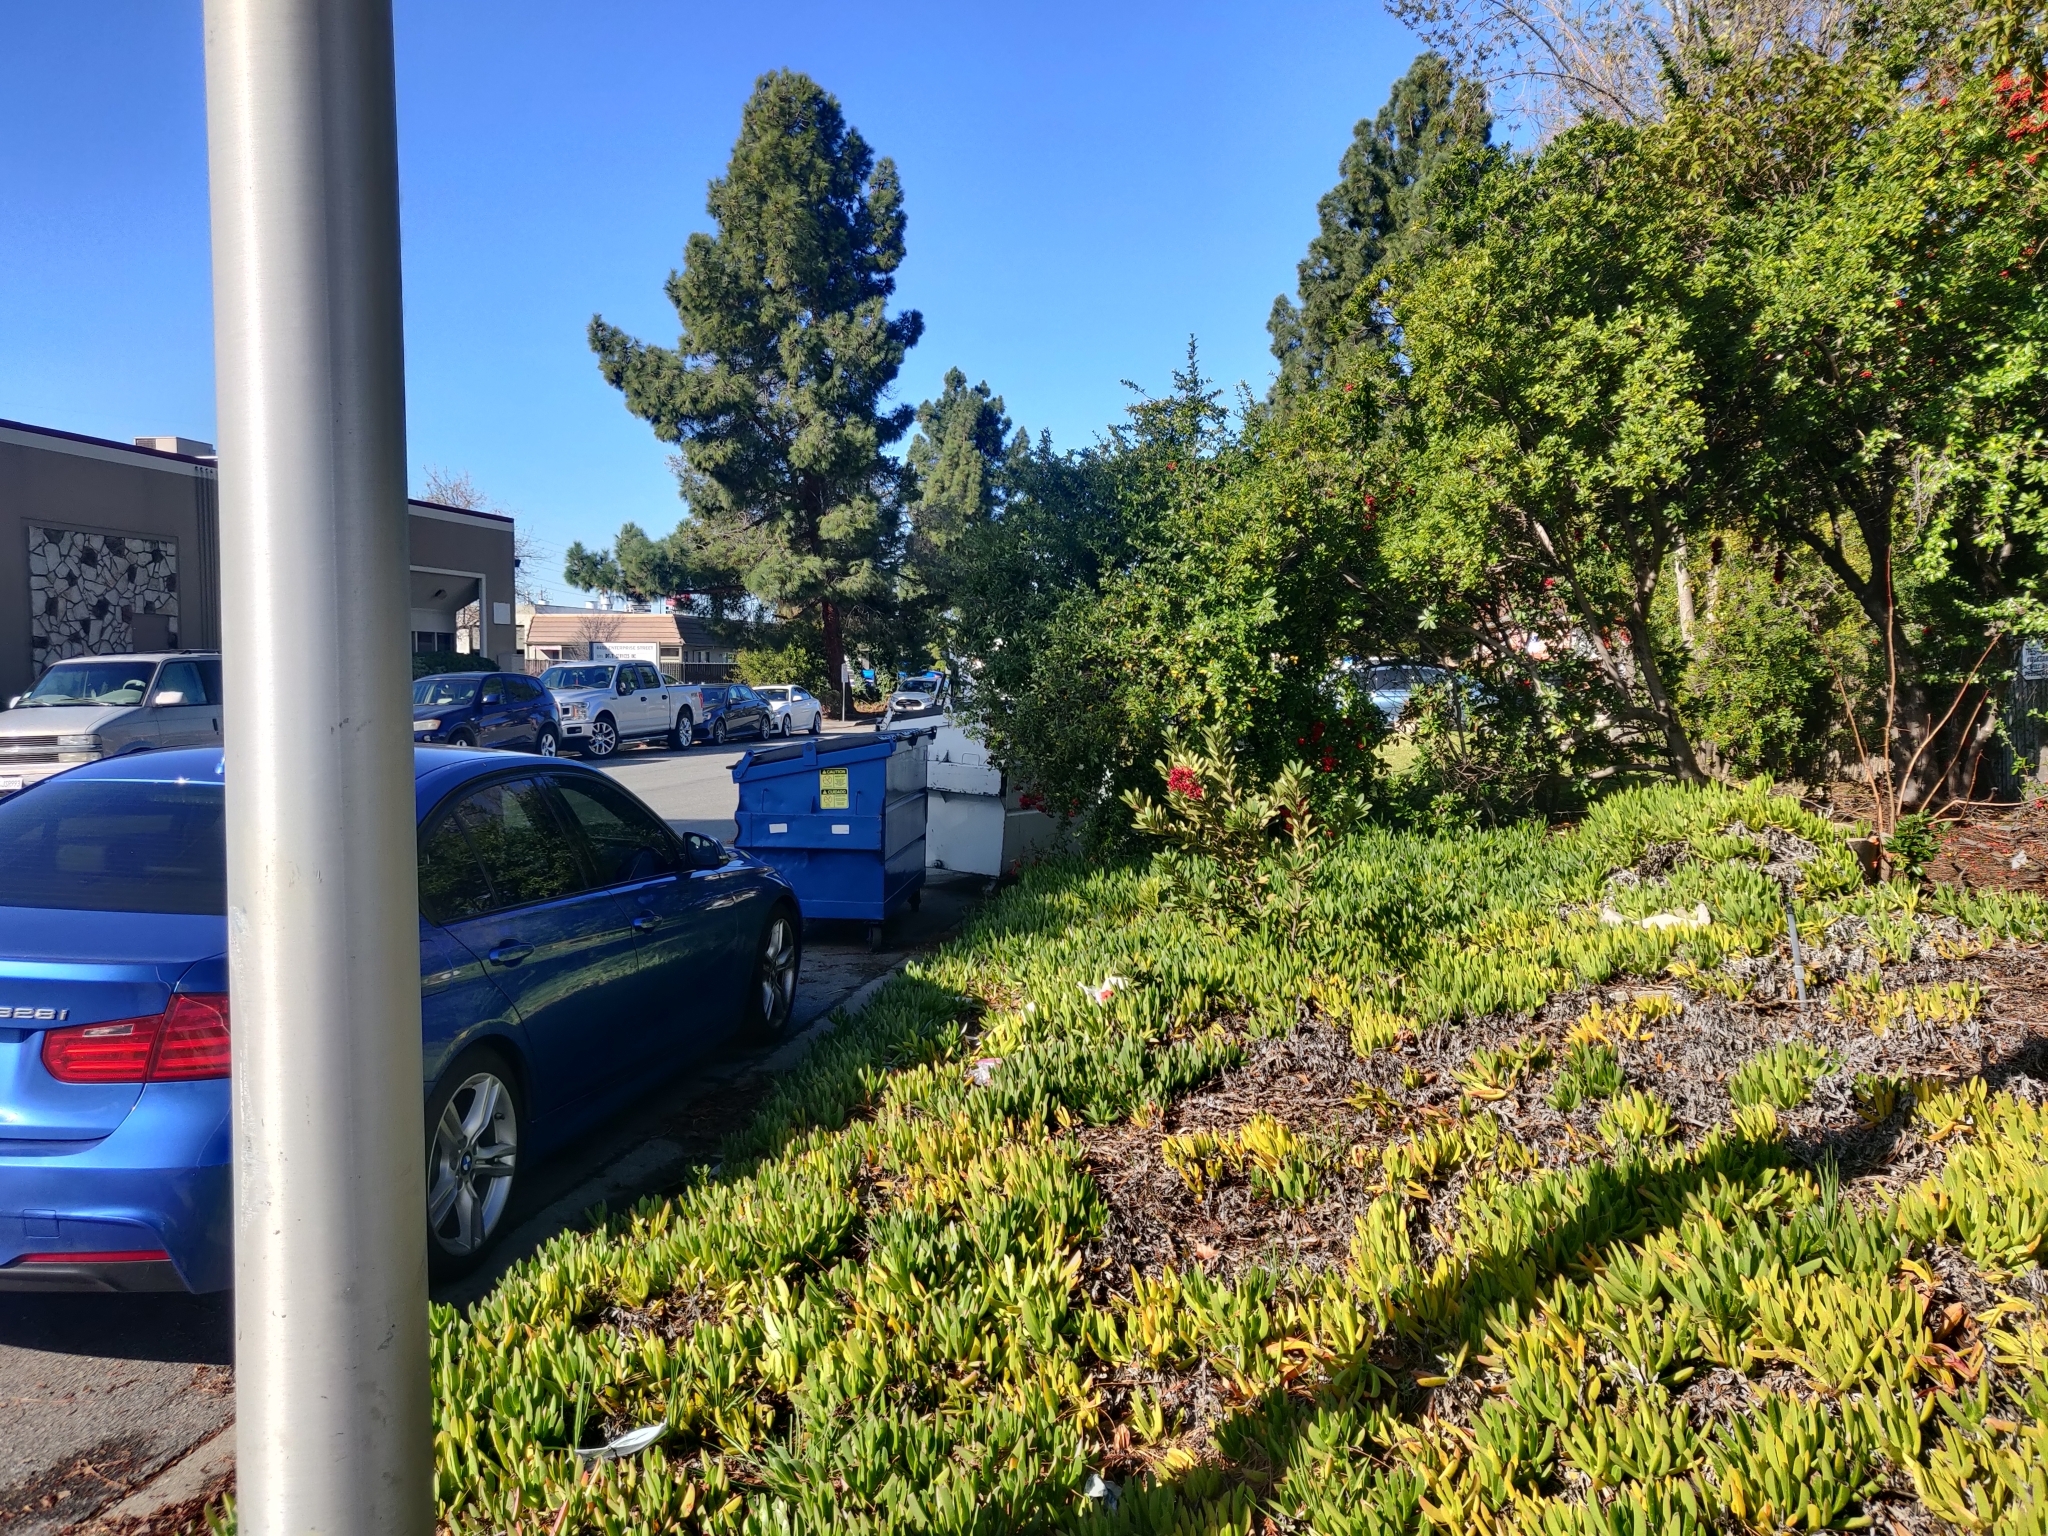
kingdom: Plantae
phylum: Tracheophyta
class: Magnoliopsida
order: Rosales
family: Rosaceae
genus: Heteromeles
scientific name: Heteromeles arbutifolia
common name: California-holly
